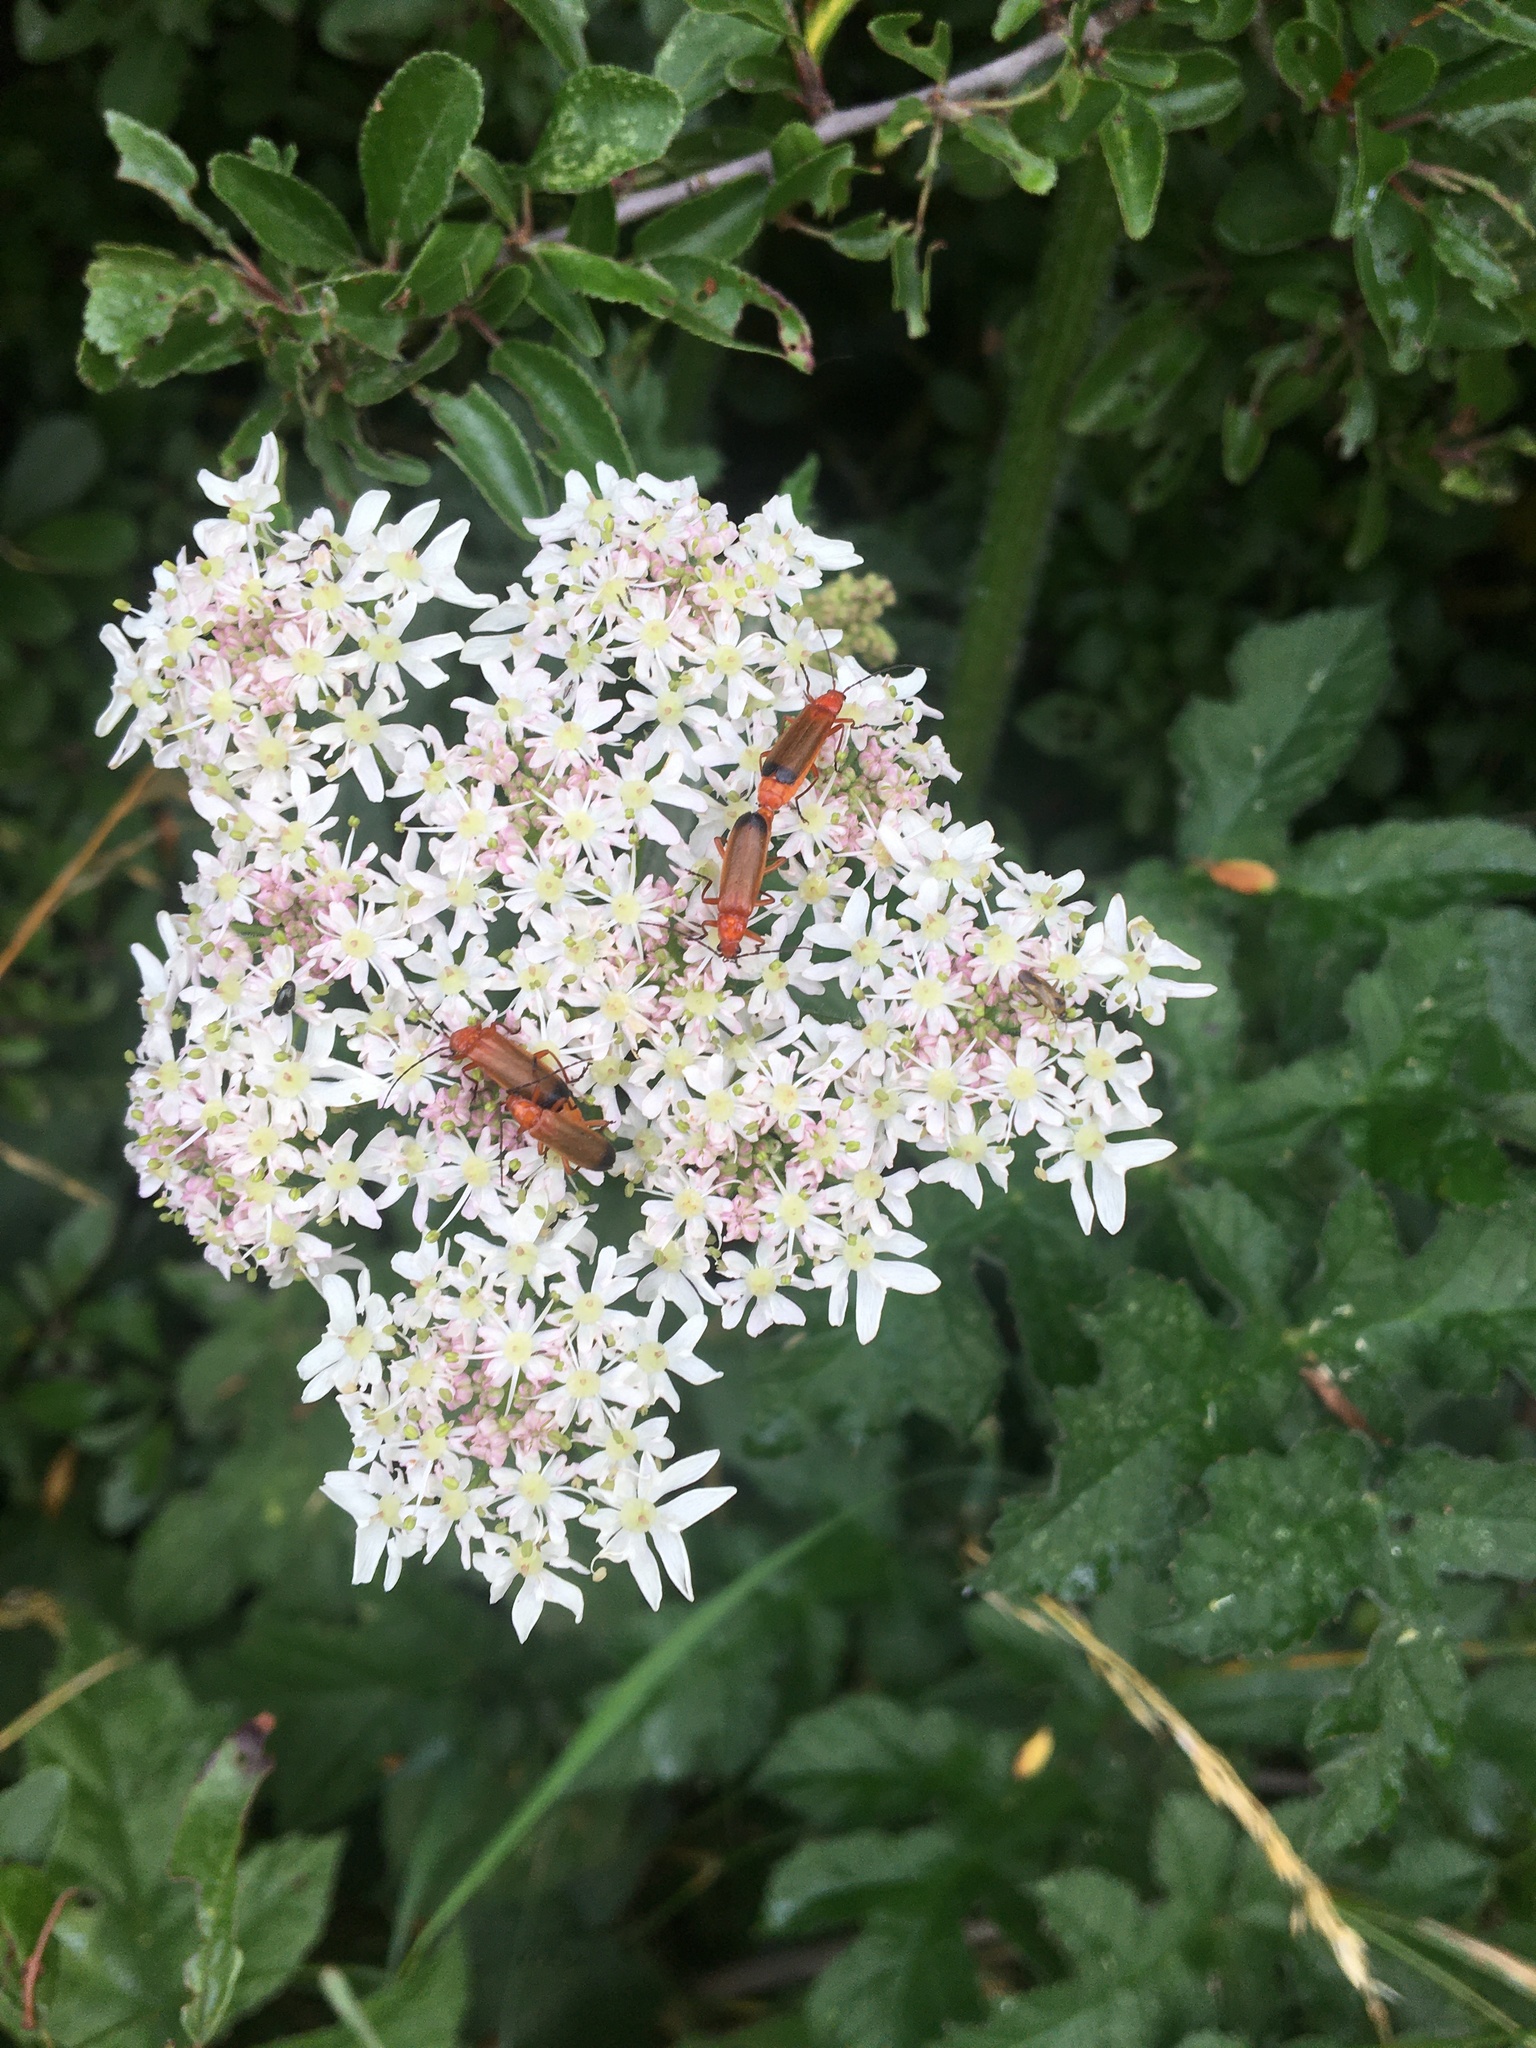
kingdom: Animalia
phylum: Arthropoda
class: Insecta
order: Coleoptera
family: Cantharidae
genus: Rhagonycha
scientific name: Rhagonycha fulva
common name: Common red soldier beetle
